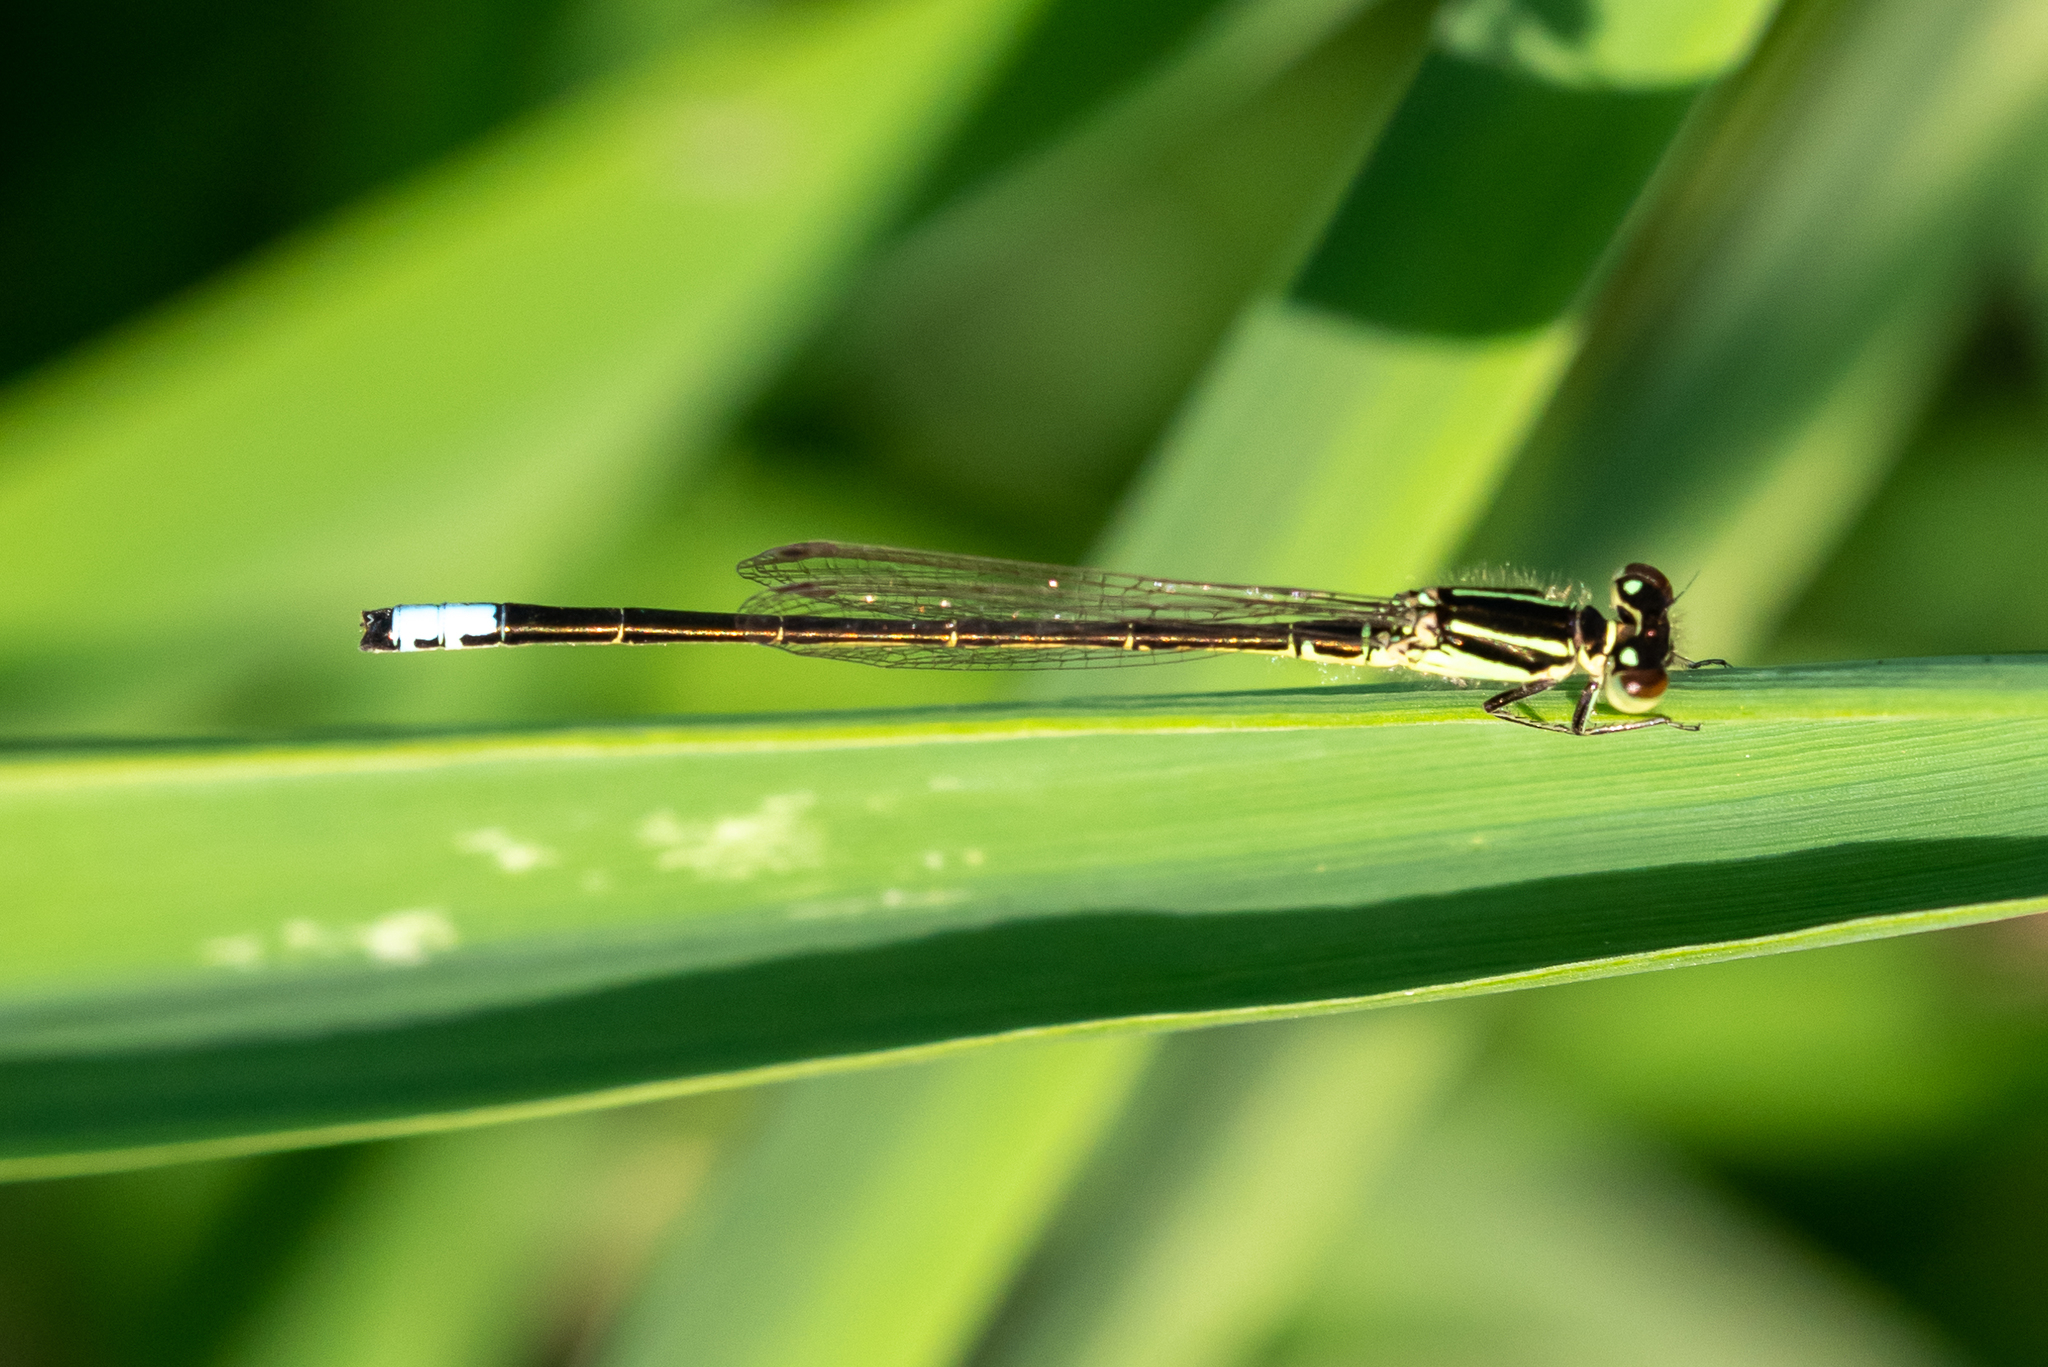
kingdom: Animalia
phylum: Arthropoda
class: Insecta
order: Odonata
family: Coenagrionidae
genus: Ischnura
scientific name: Ischnura verticalis
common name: Eastern forktail
